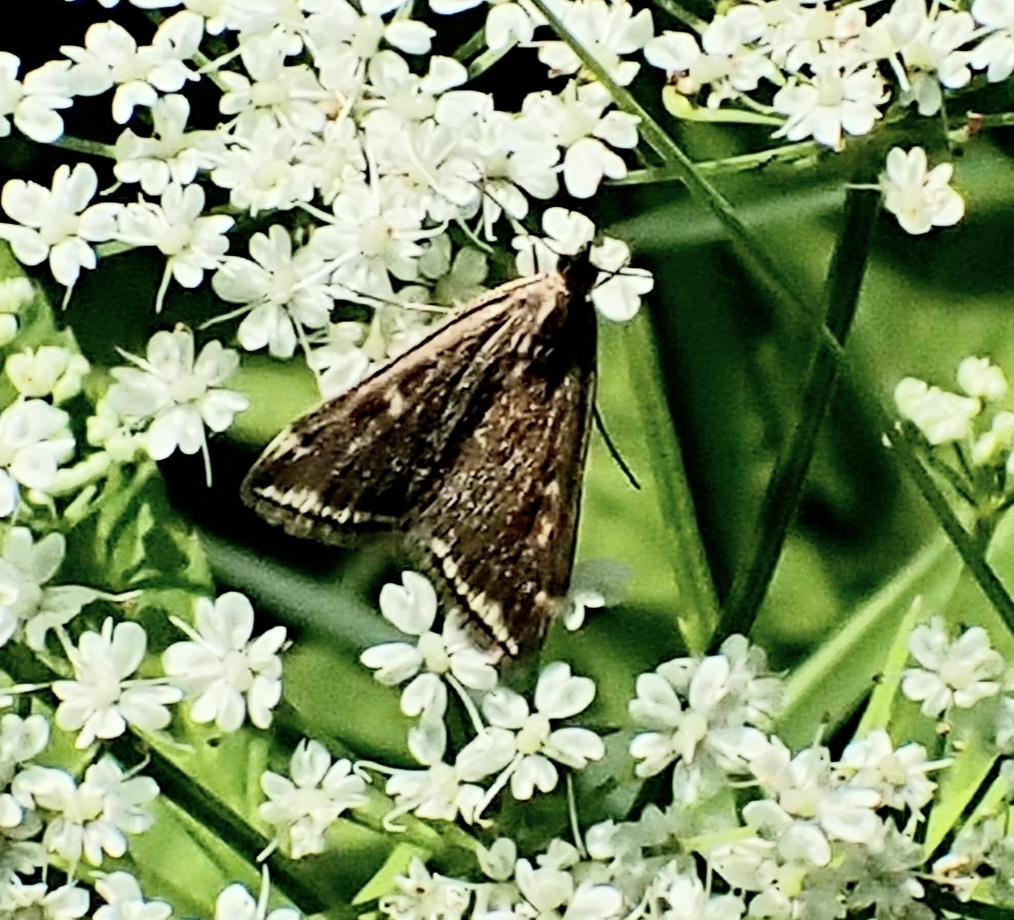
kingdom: Animalia
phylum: Arthropoda
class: Insecta
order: Lepidoptera
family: Crambidae
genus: Loxostege
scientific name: Loxostege sticticalis
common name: Crambid moth
